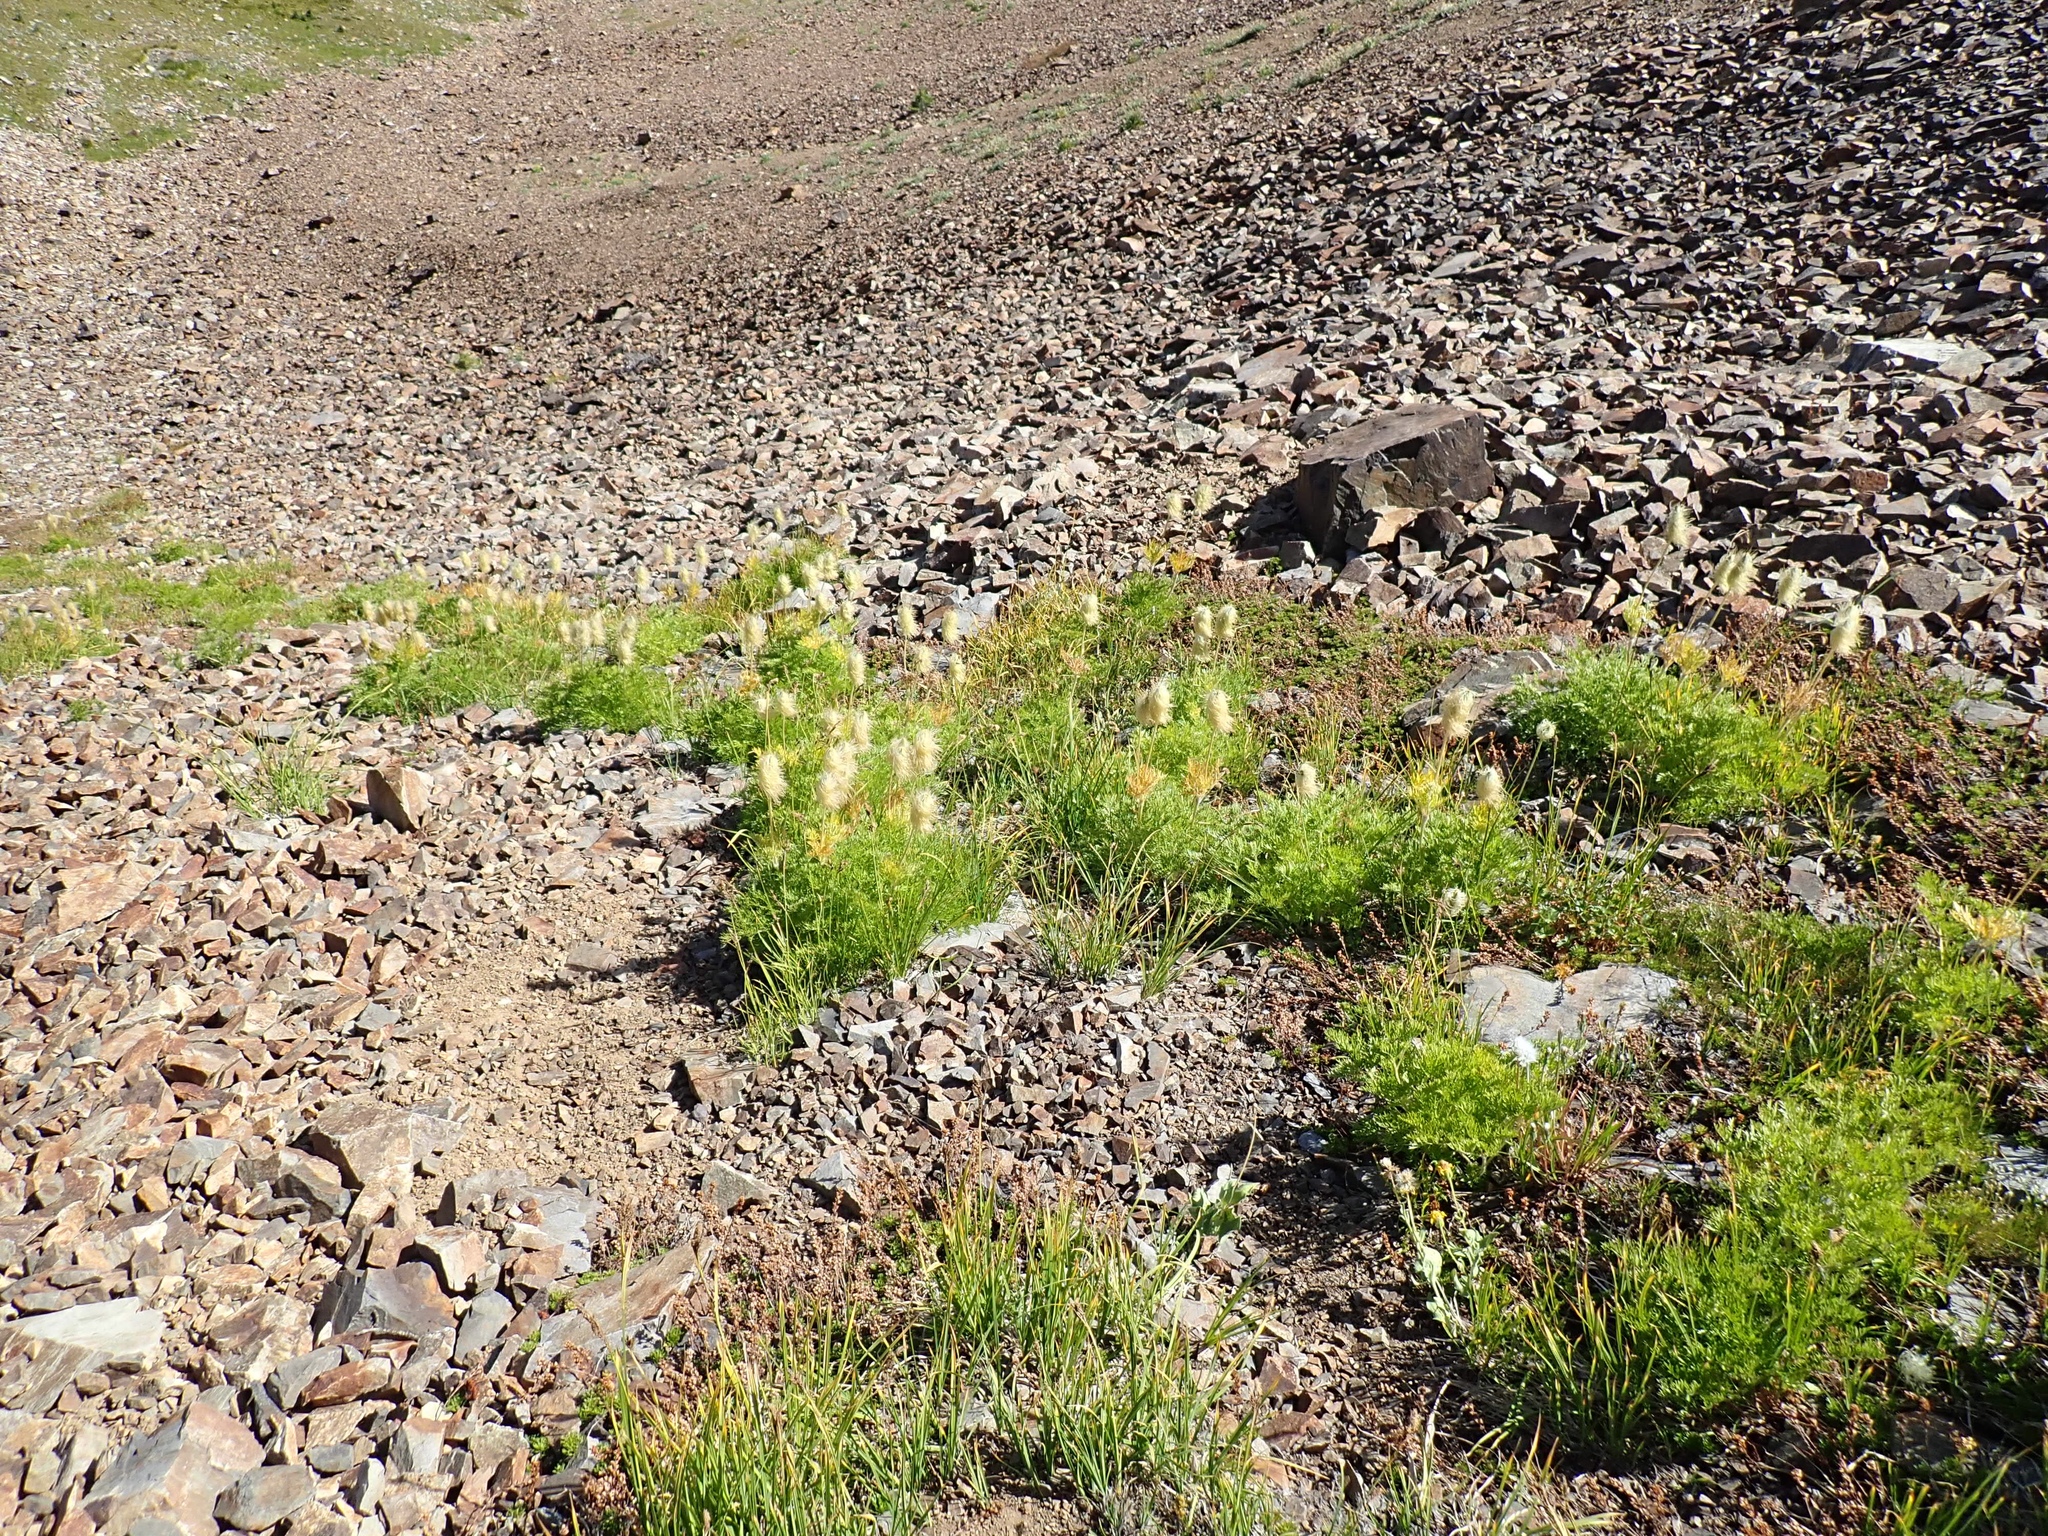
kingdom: Plantae
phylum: Tracheophyta
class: Magnoliopsida
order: Ranunculales
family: Ranunculaceae
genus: Pulsatilla
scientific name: Pulsatilla occidentalis
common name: Mountain pasqueflower
